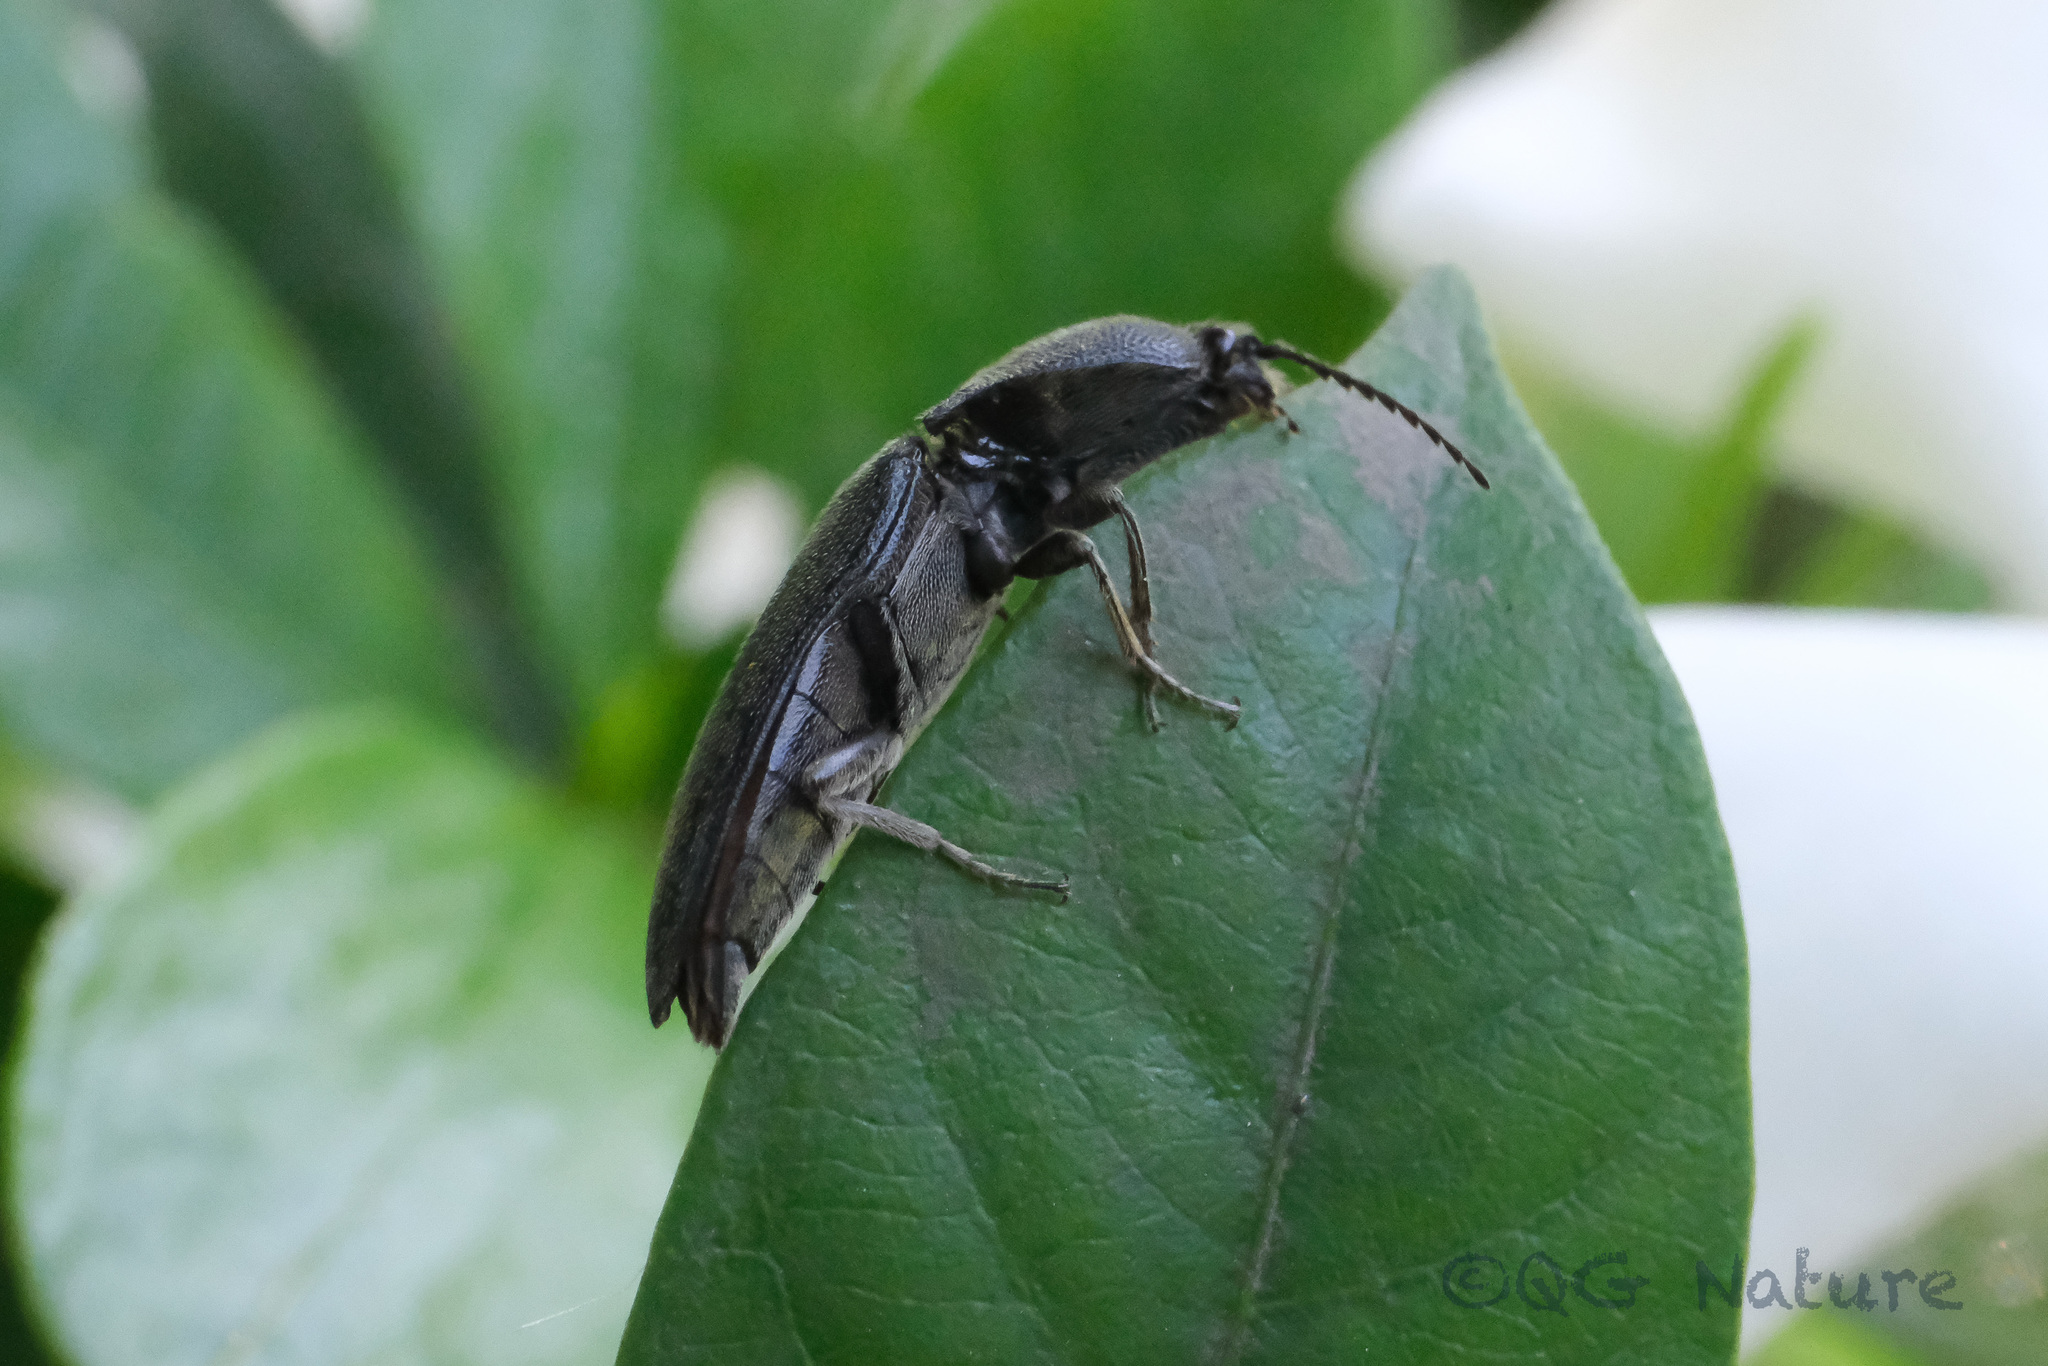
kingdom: Animalia
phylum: Arthropoda
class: Insecta
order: Coleoptera
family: Elateridae
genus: Melanotus
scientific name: Melanotus cribricollis
